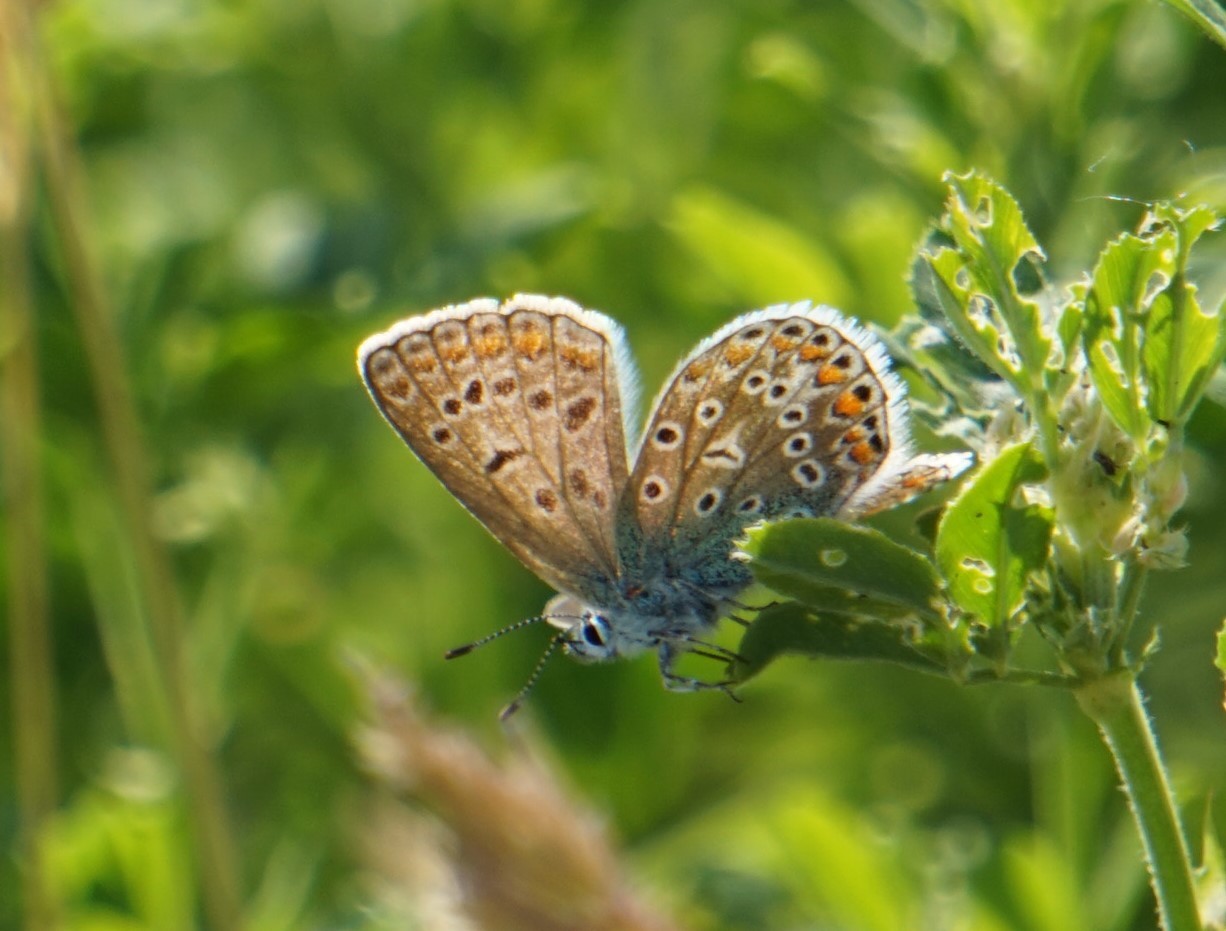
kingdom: Animalia
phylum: Arthropoda
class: Insecta
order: Lepidoptera
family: Lycaenidae
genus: Polyommatus
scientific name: Polyommatus icarus
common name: Common blue
